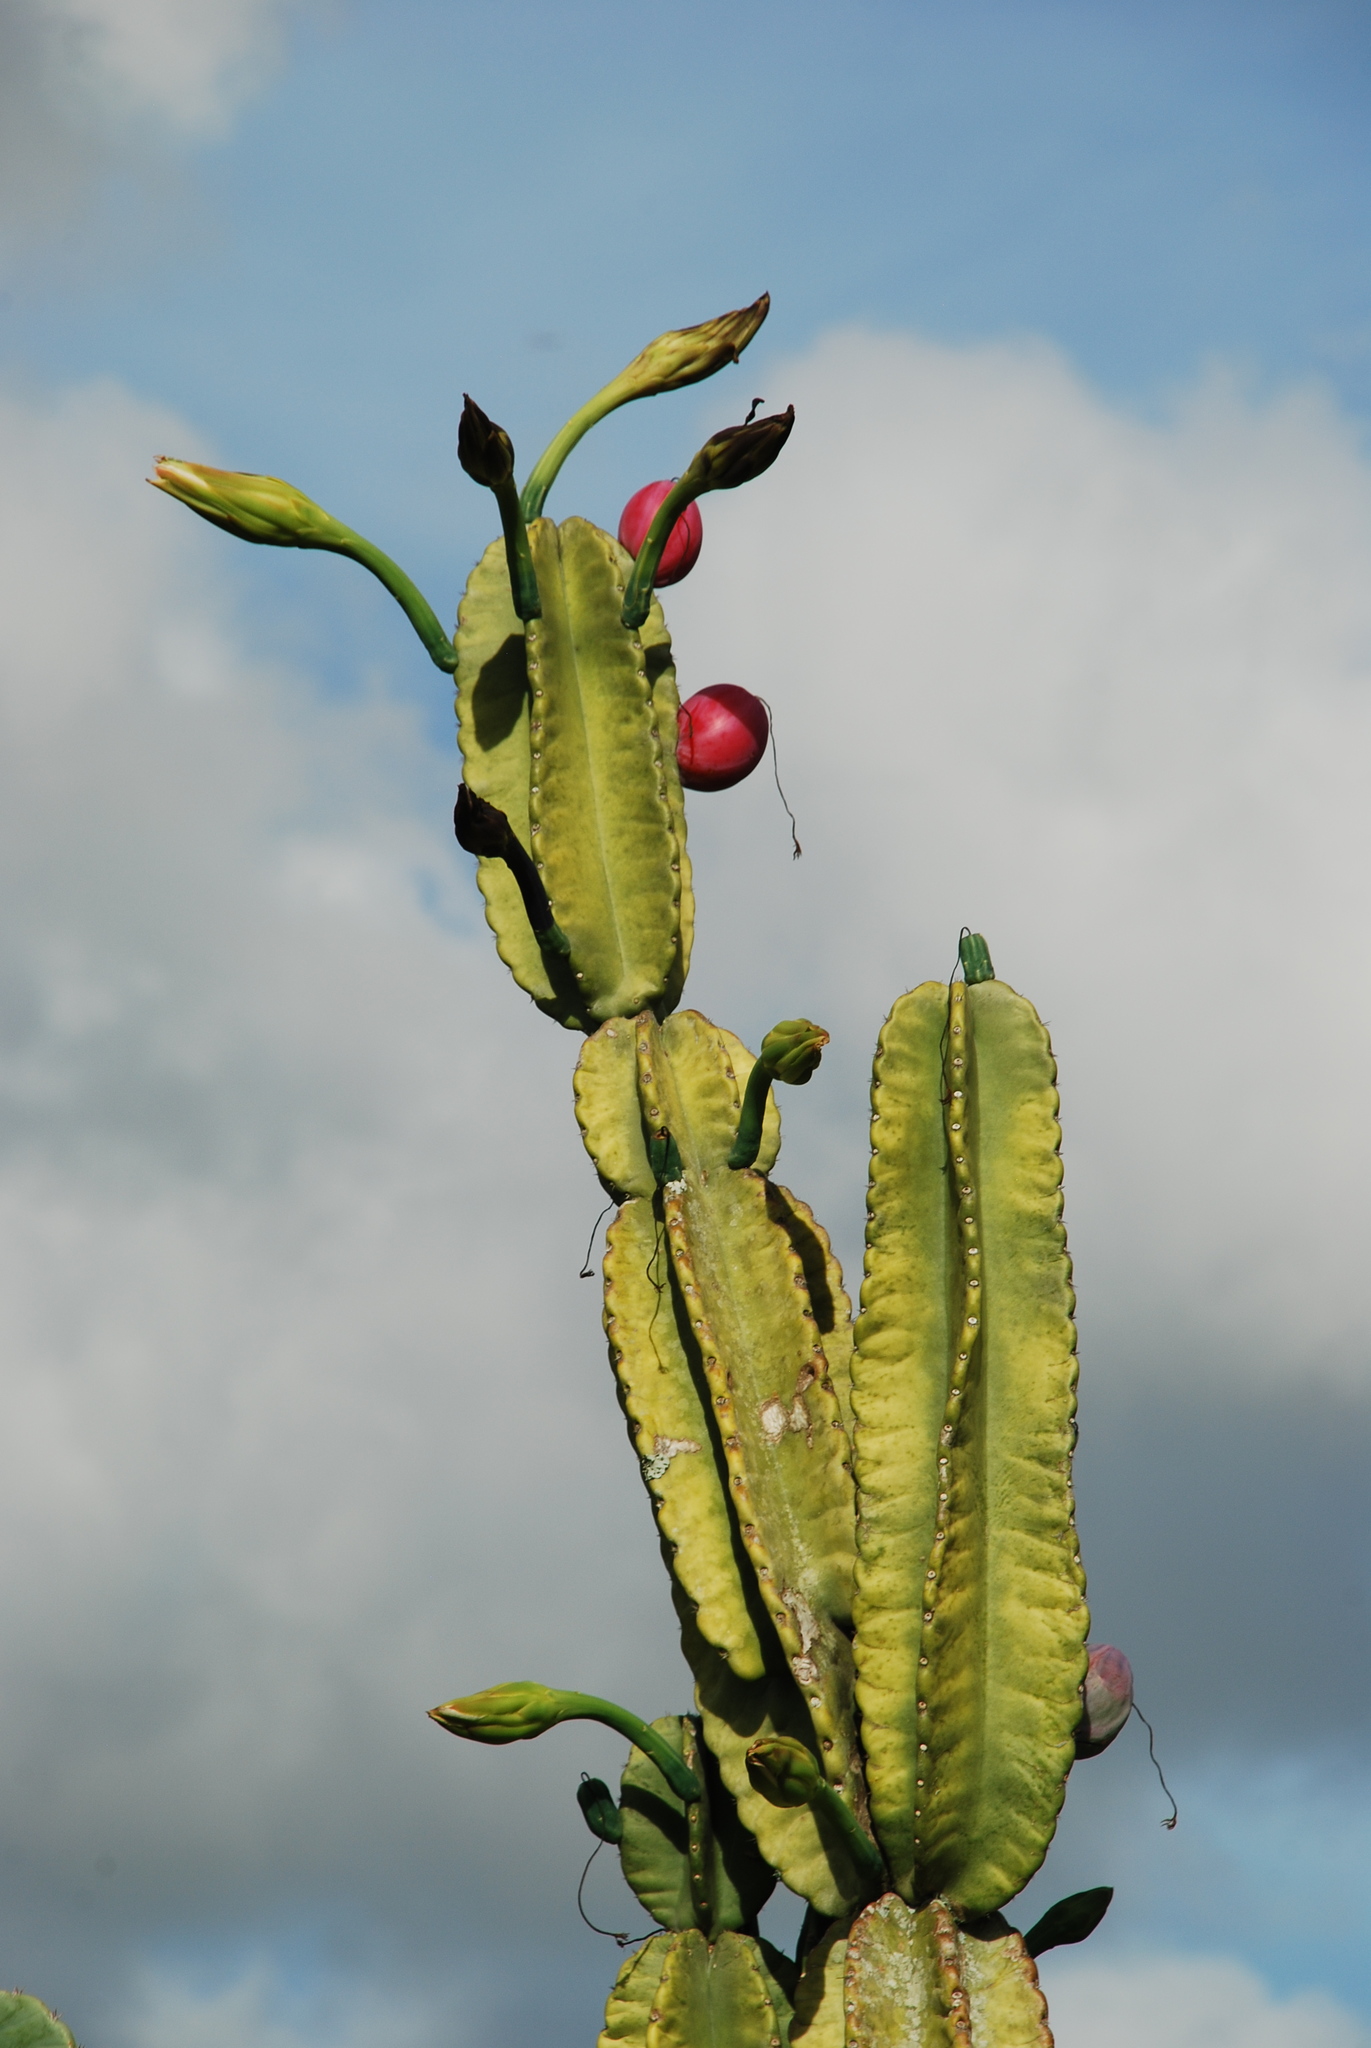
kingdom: Plantae
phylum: Tracheophyta
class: Magnoliopsida
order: Caryophyllales
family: Cactaceae
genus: Cereus
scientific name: Cereus hexagonus
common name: Lady of the night cactus
